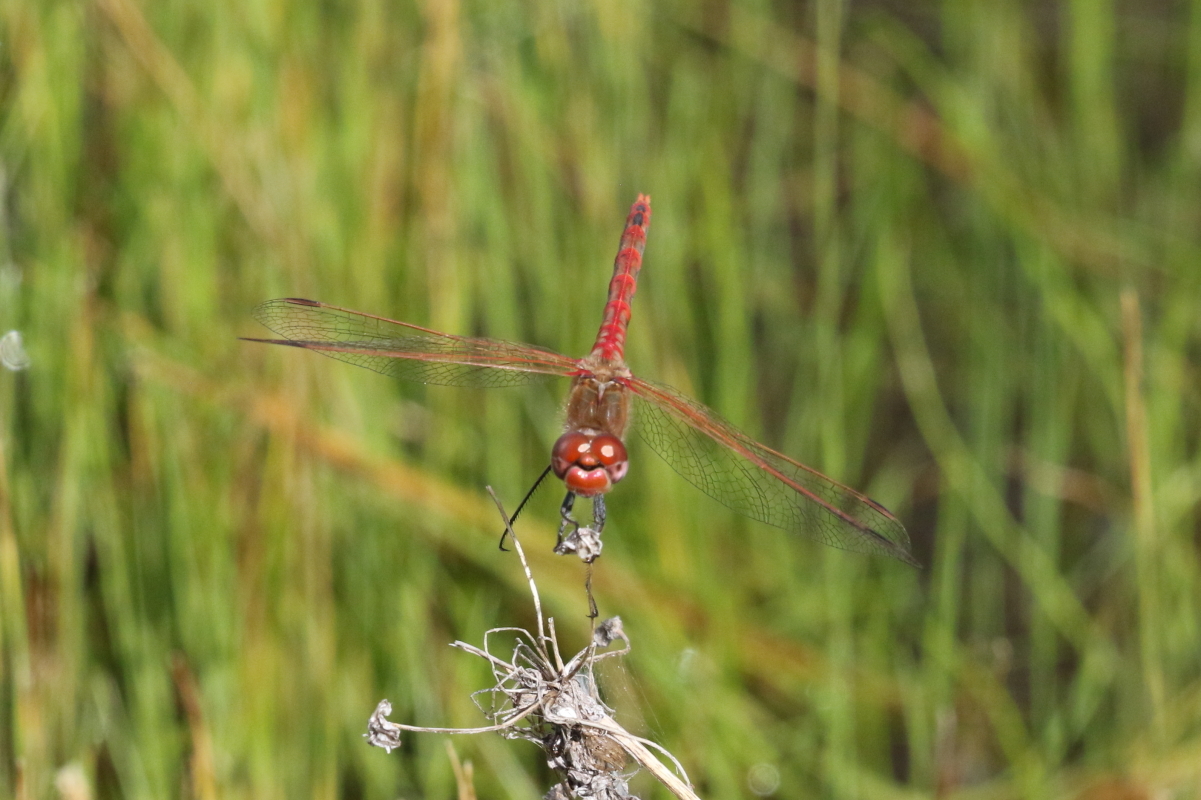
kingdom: Animalia
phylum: Arthropoda
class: Insecta
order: Odonata
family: Libellulidae
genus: Sympetrum
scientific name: Sympetrum corruptum
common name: Variegated meadowhawk
